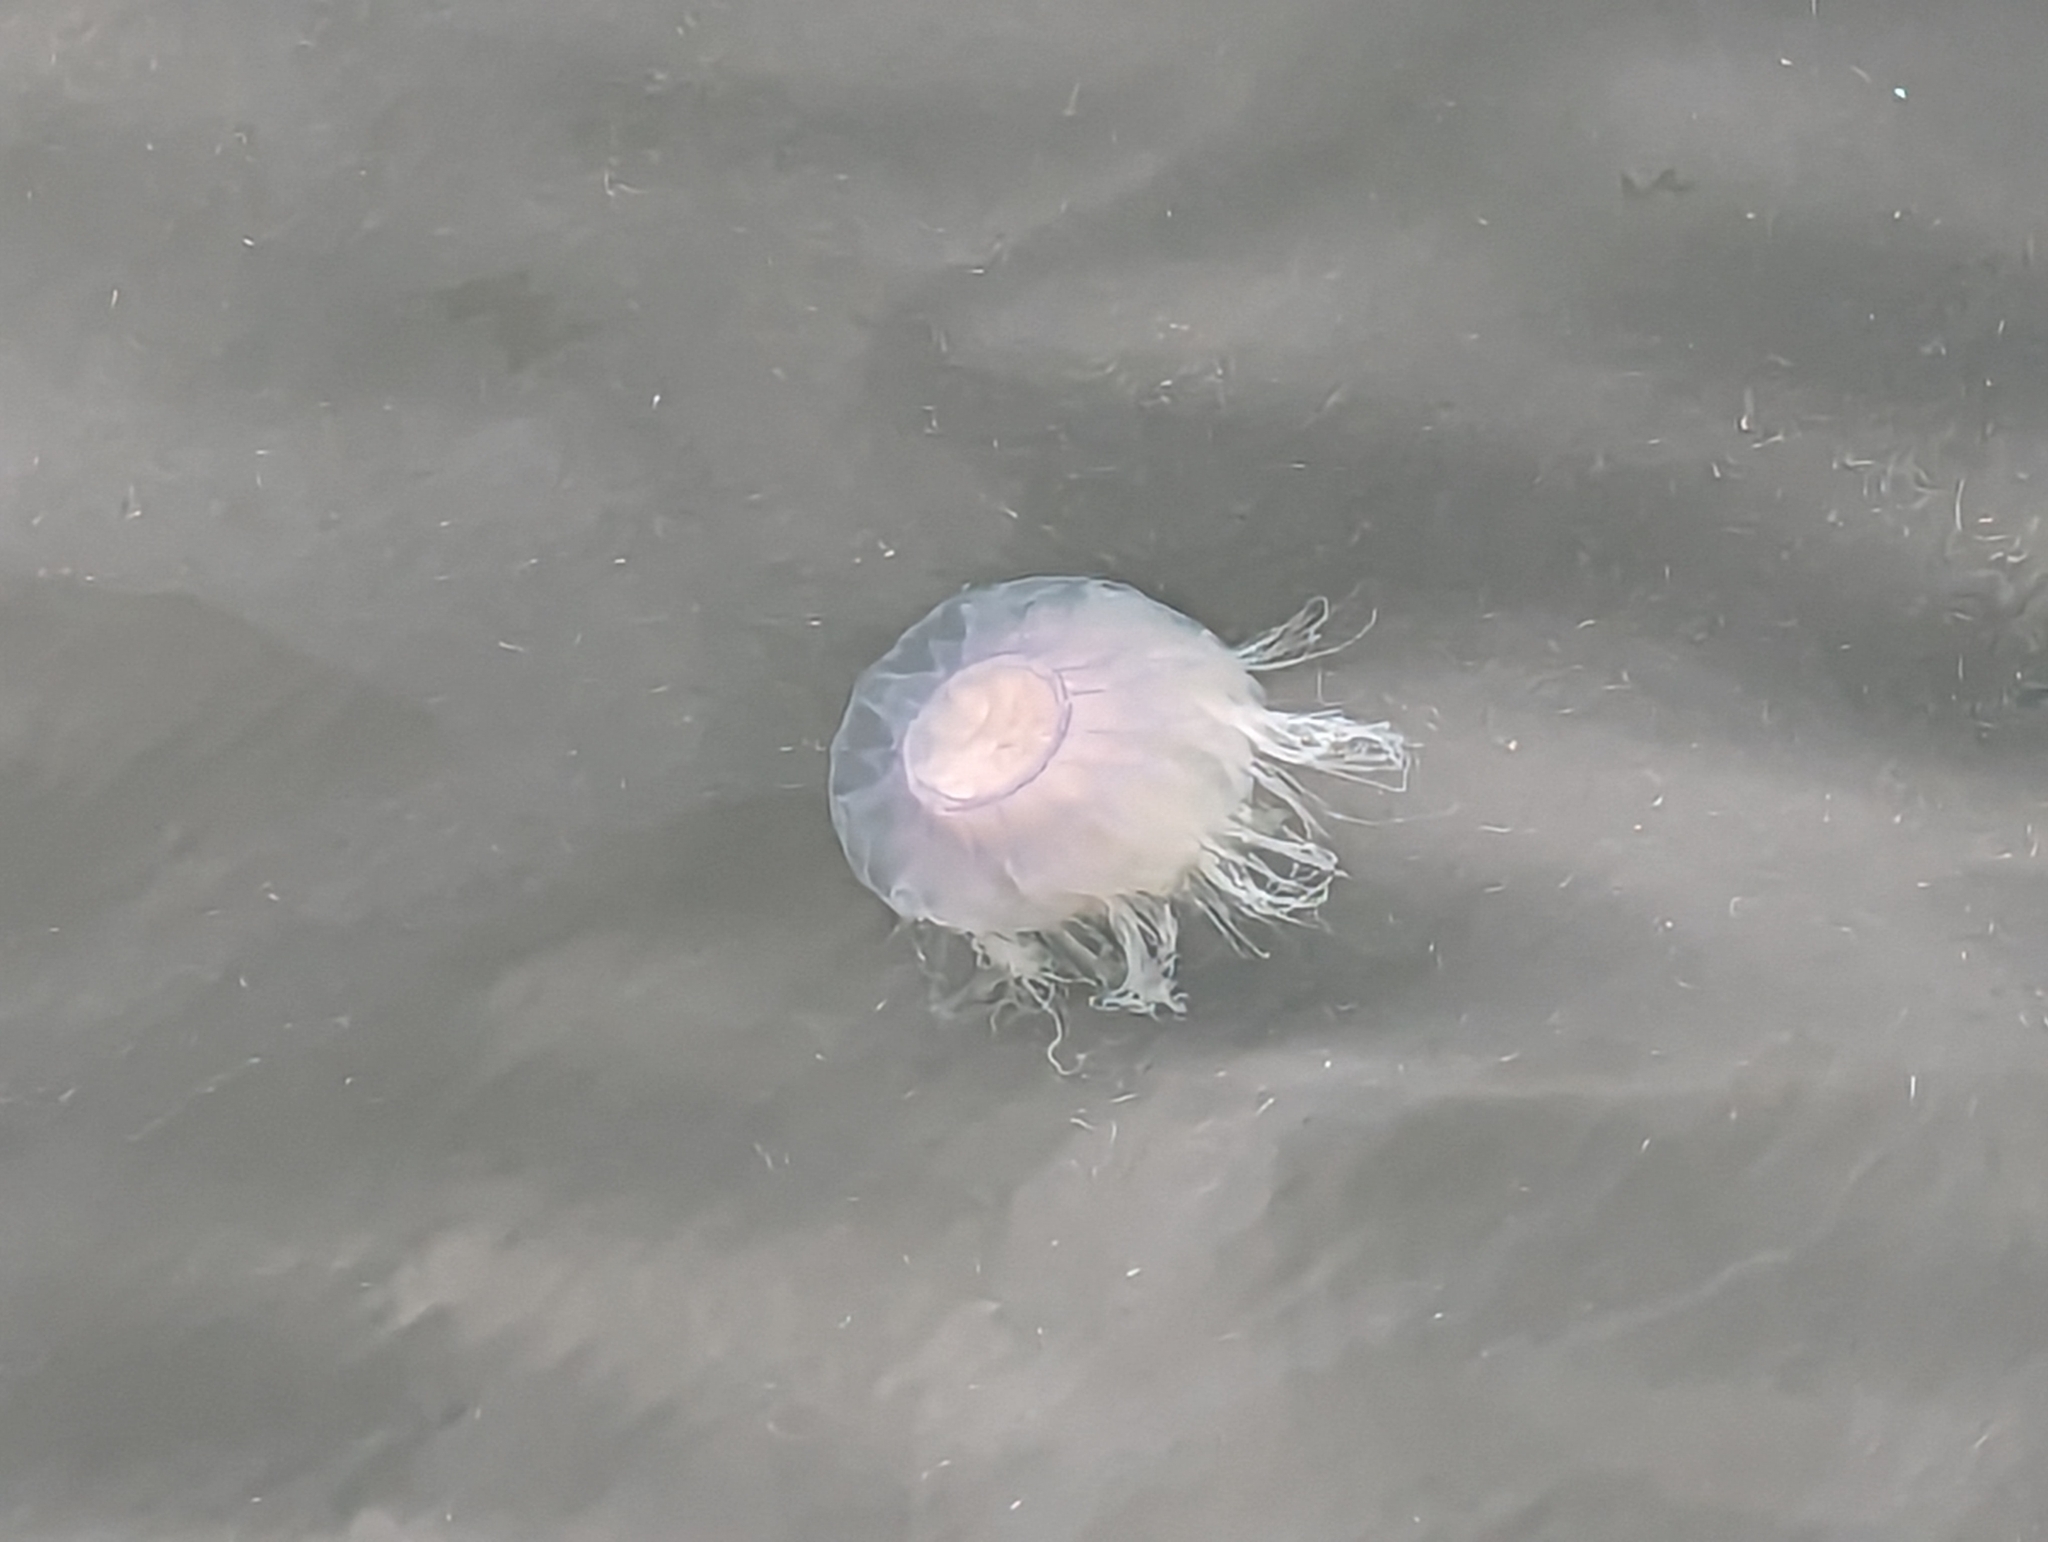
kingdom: Animalia
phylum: Cnidaria
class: Scyphozoa
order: Semaeostomeae
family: Cyaneidae
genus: Cyanea
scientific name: Cyanea lamarckii
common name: Blue jellyfish
